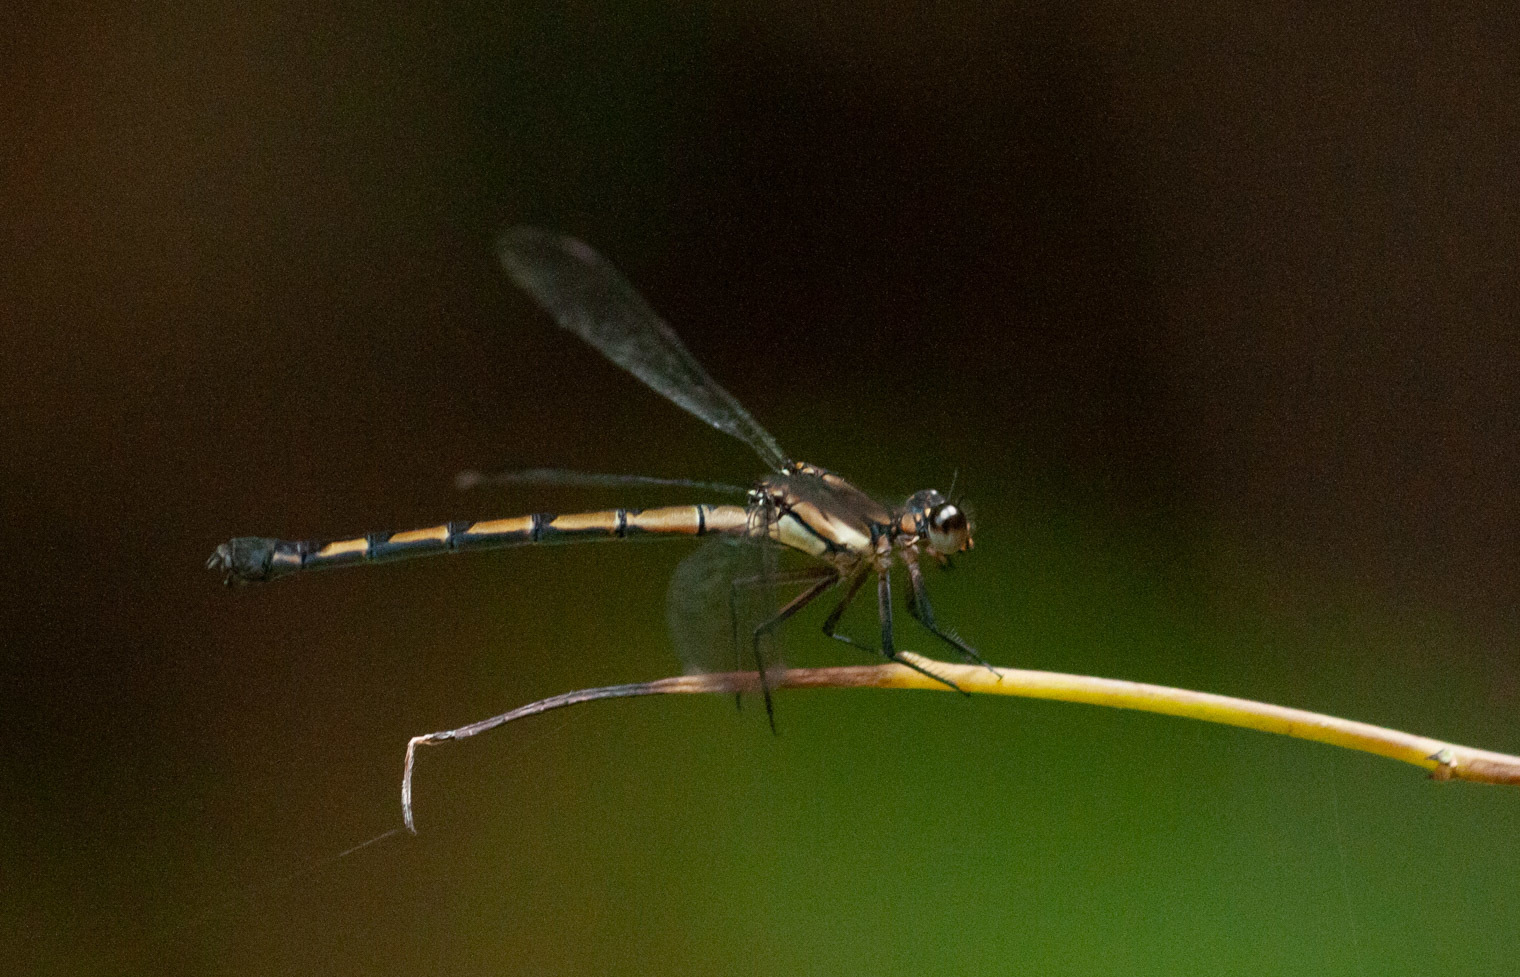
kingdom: Animalia
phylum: Arthropoda
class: Insecta
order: Odonata
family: Lestoideidae
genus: Diphlebia
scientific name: Diphlebia coerulescens
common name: Sapphire rockmaster
